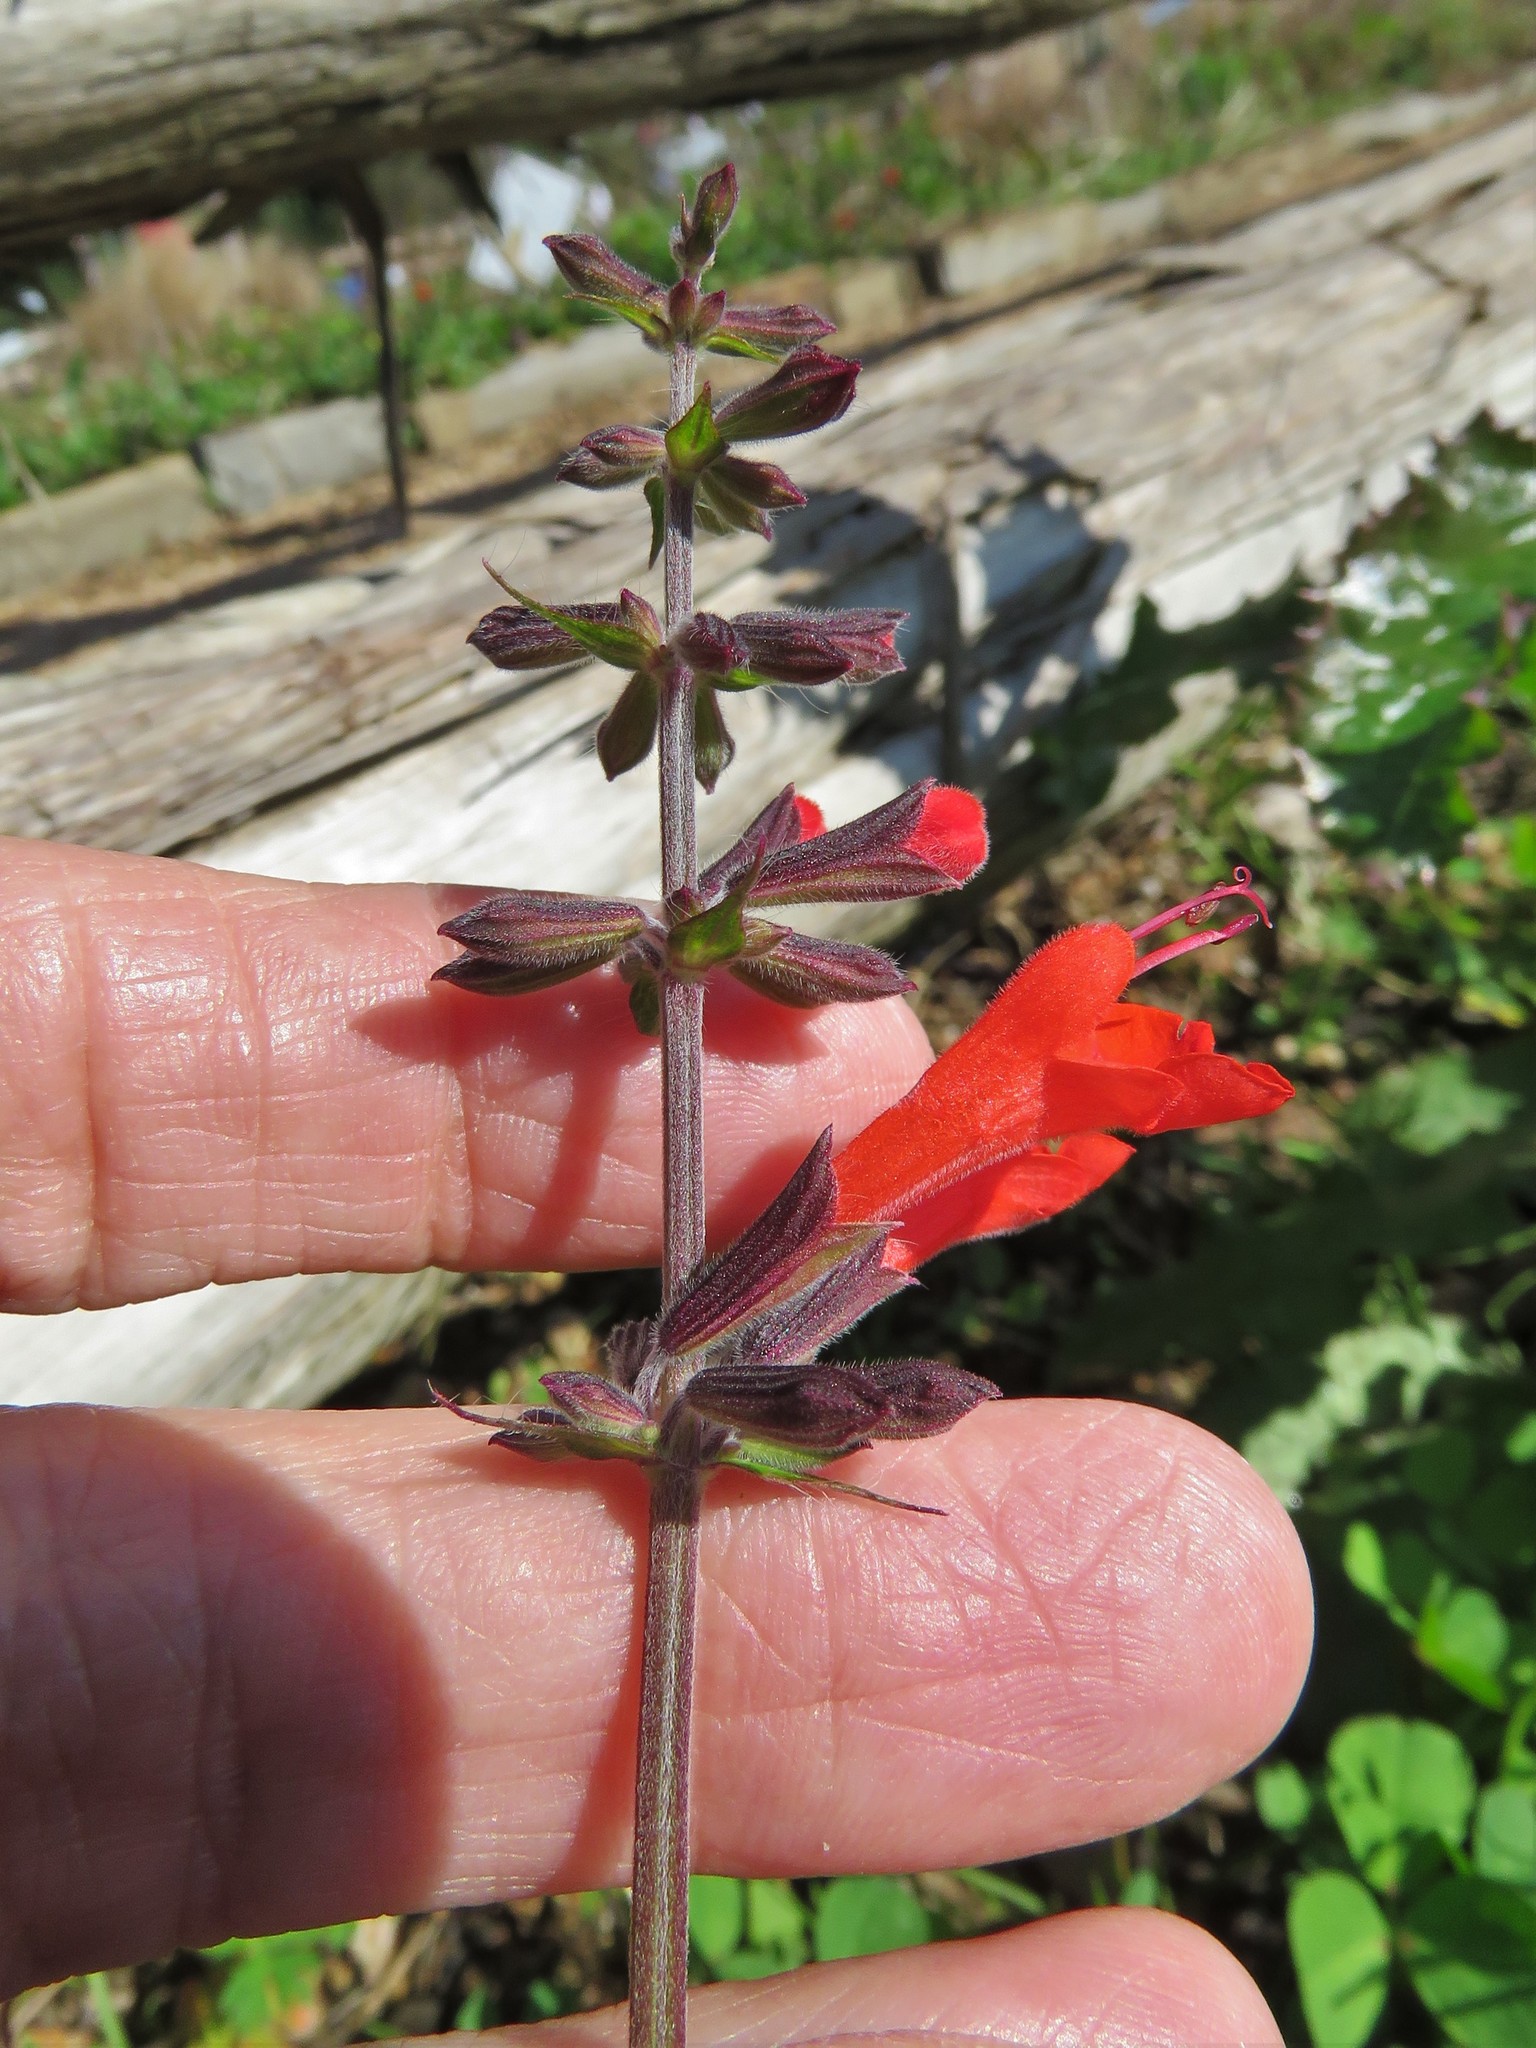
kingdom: Plantae
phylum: Tracheophyta
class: Magnoliopsida
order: Lamiales
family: Lamiaceae
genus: Salvia
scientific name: Salvia coccinea
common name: Blood sage
